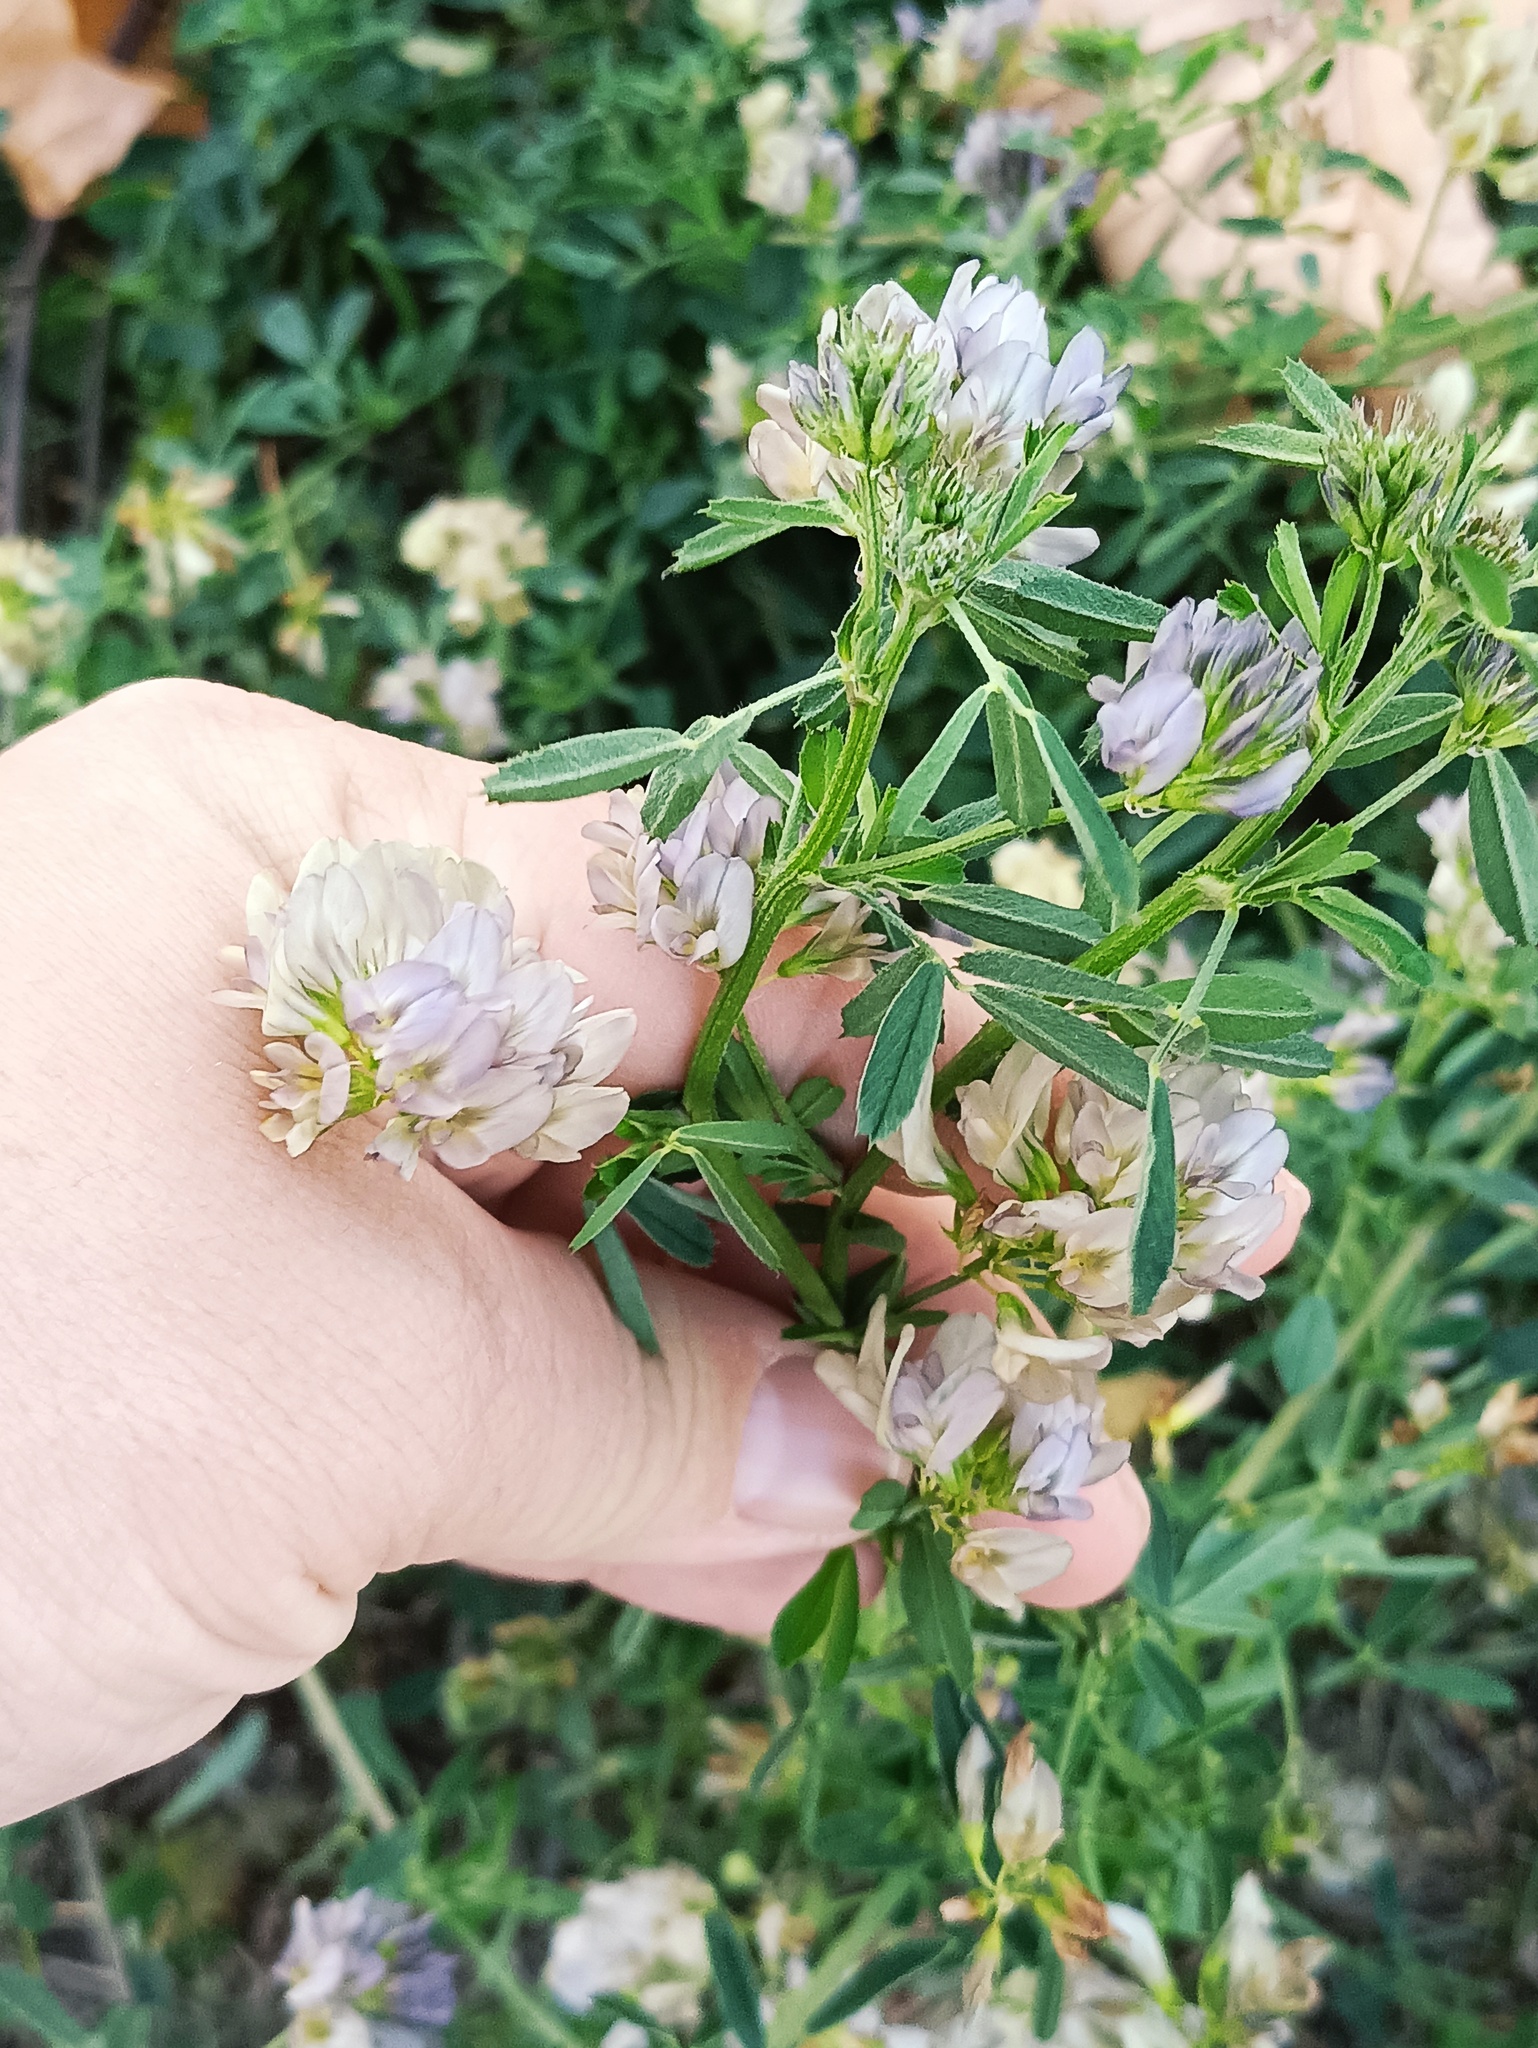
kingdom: Plantae
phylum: Tracheophyta
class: Magnoliopsida
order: Fabales
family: Fabaceae
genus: Medicago
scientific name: Medicago varia
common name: Sand lucerne
